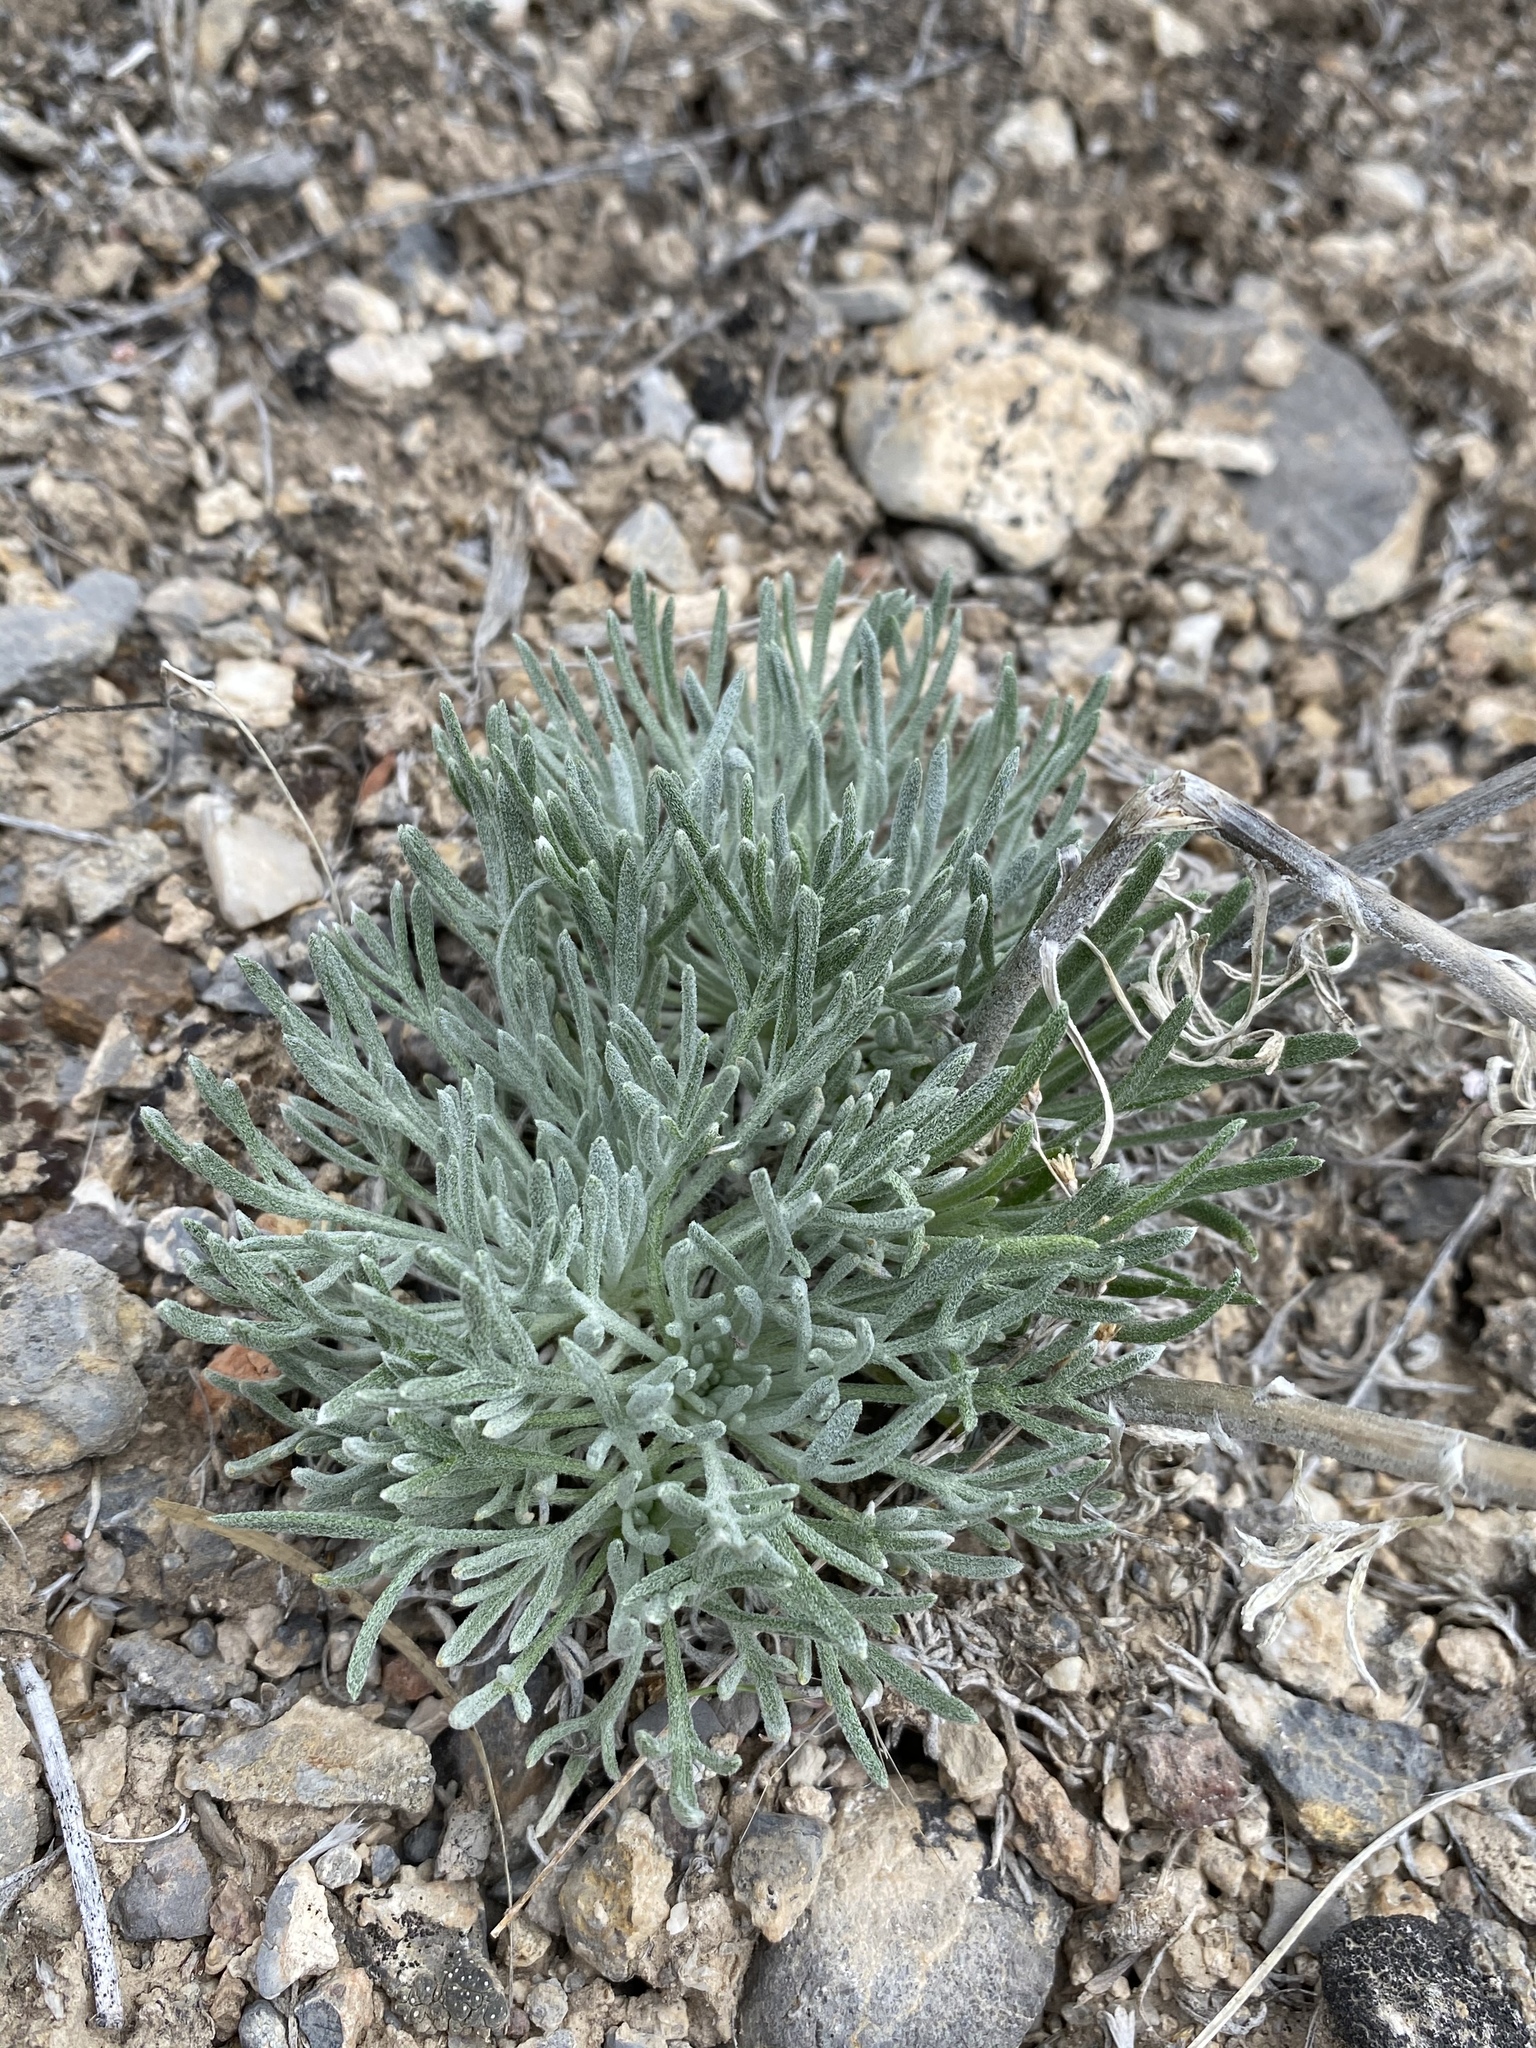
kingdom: Plantae
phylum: Tracheophyta
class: Magnoliopsida
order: Asterales
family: Asteraceae
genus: Hymenoxys
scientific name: Hymenoxys cooperi
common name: Cooper's bitterweed
